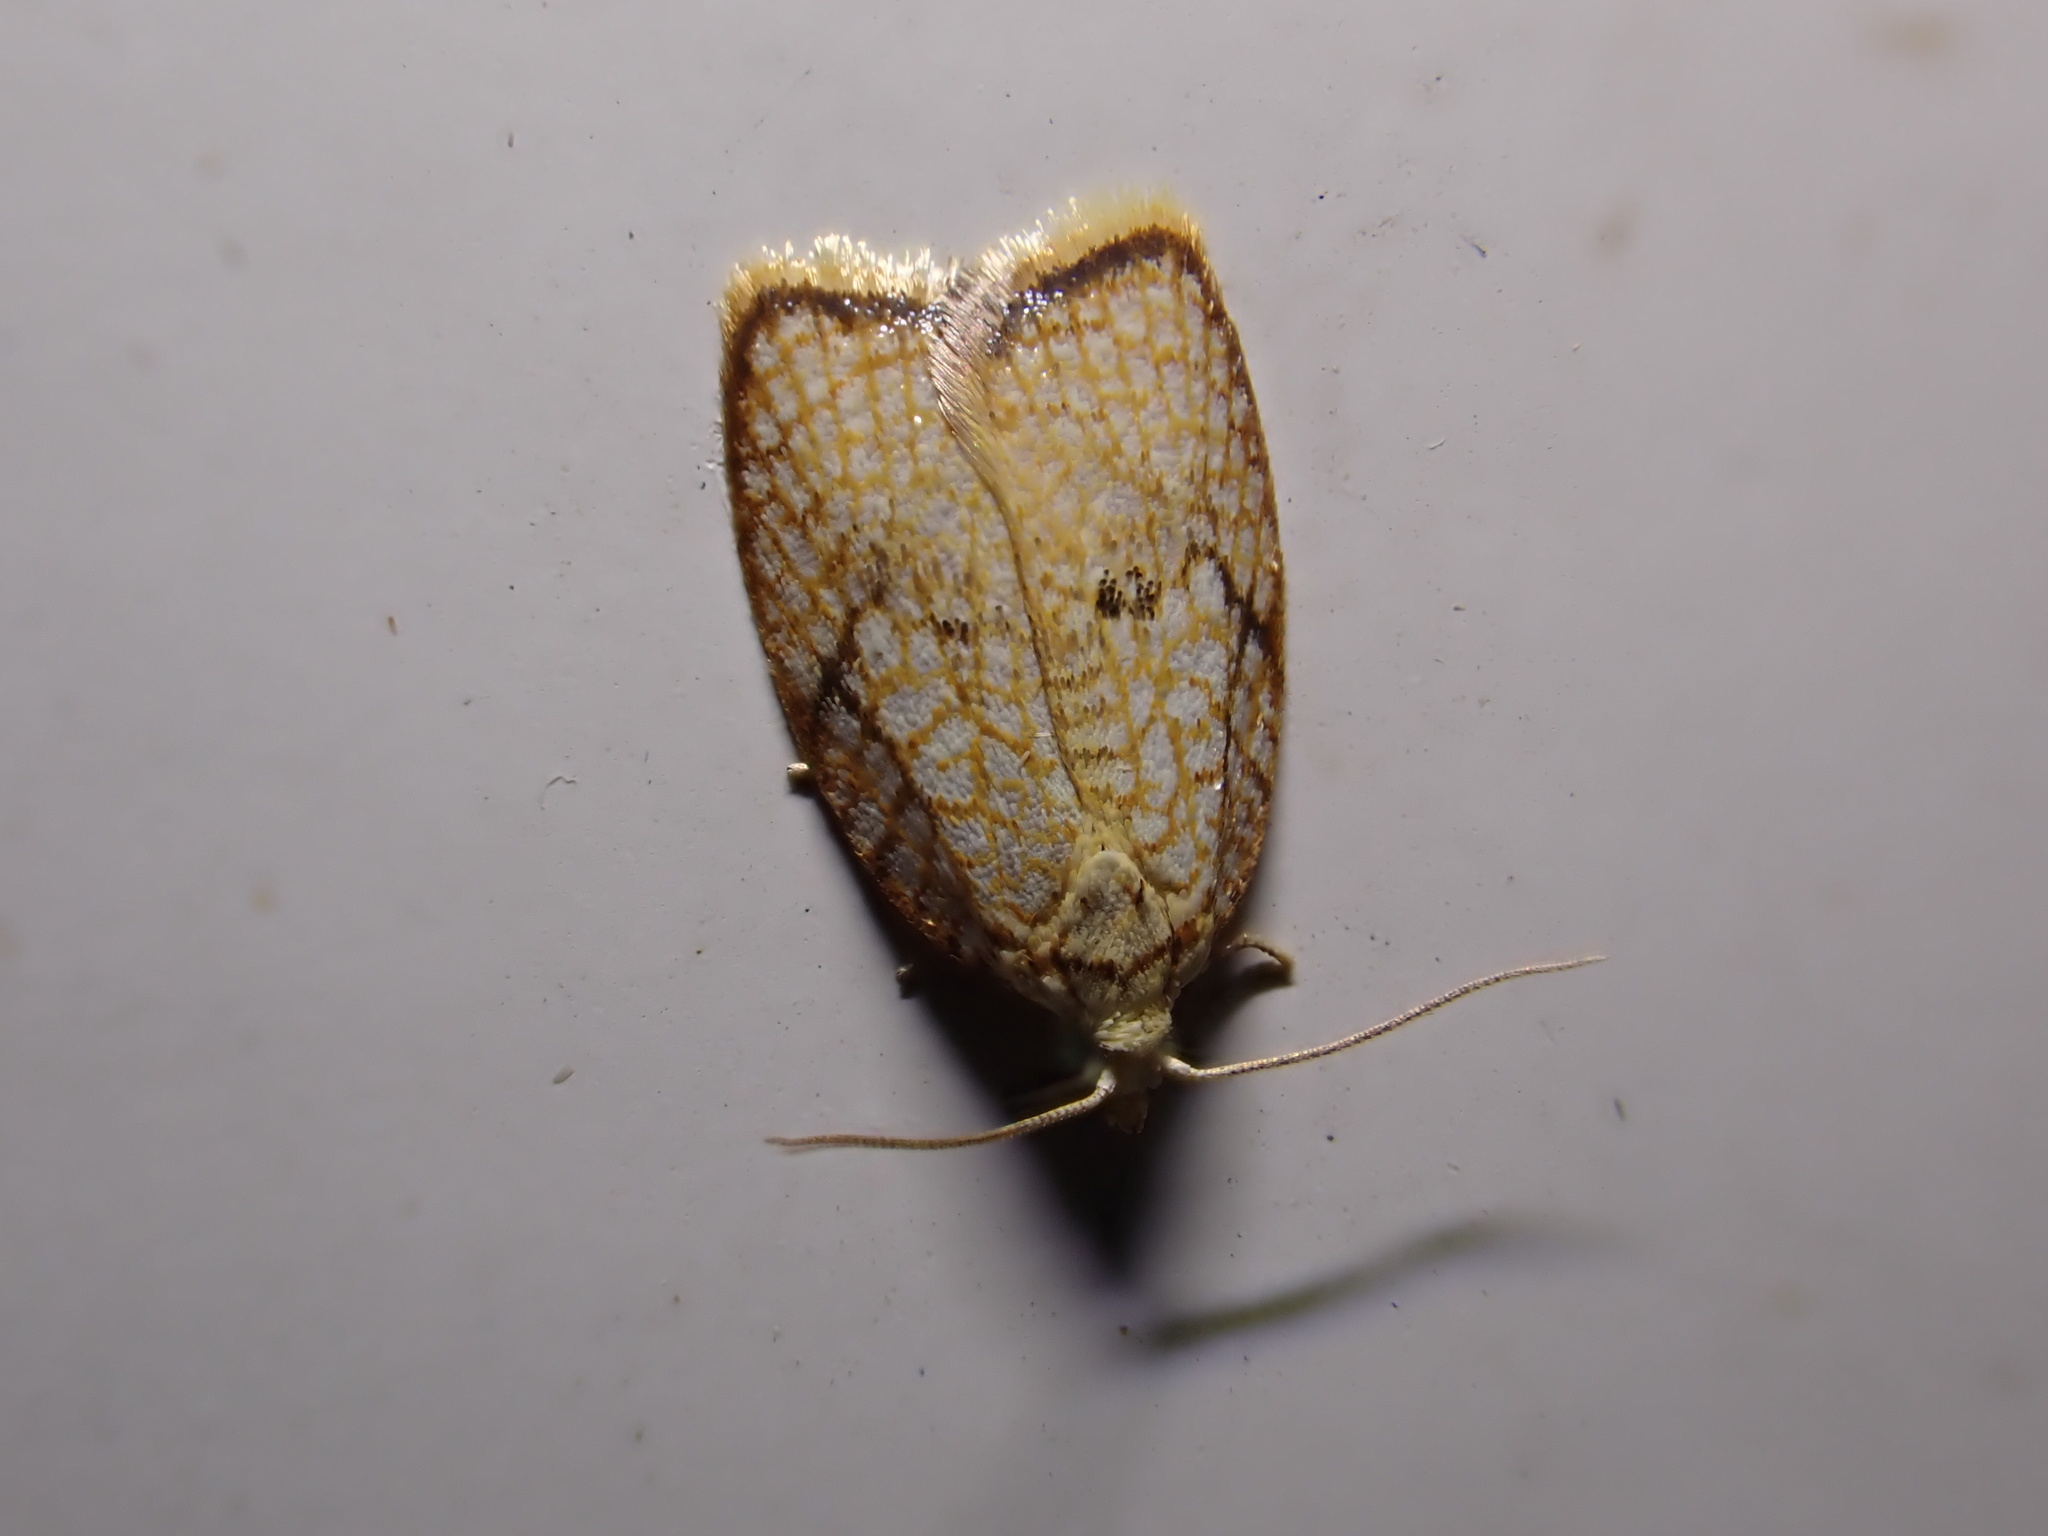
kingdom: Animalia
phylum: Arthropoda
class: Insecta
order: Lepidoptera
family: Tortricidae
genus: Acleris
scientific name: Acleris forsskaleana
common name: Maple button
